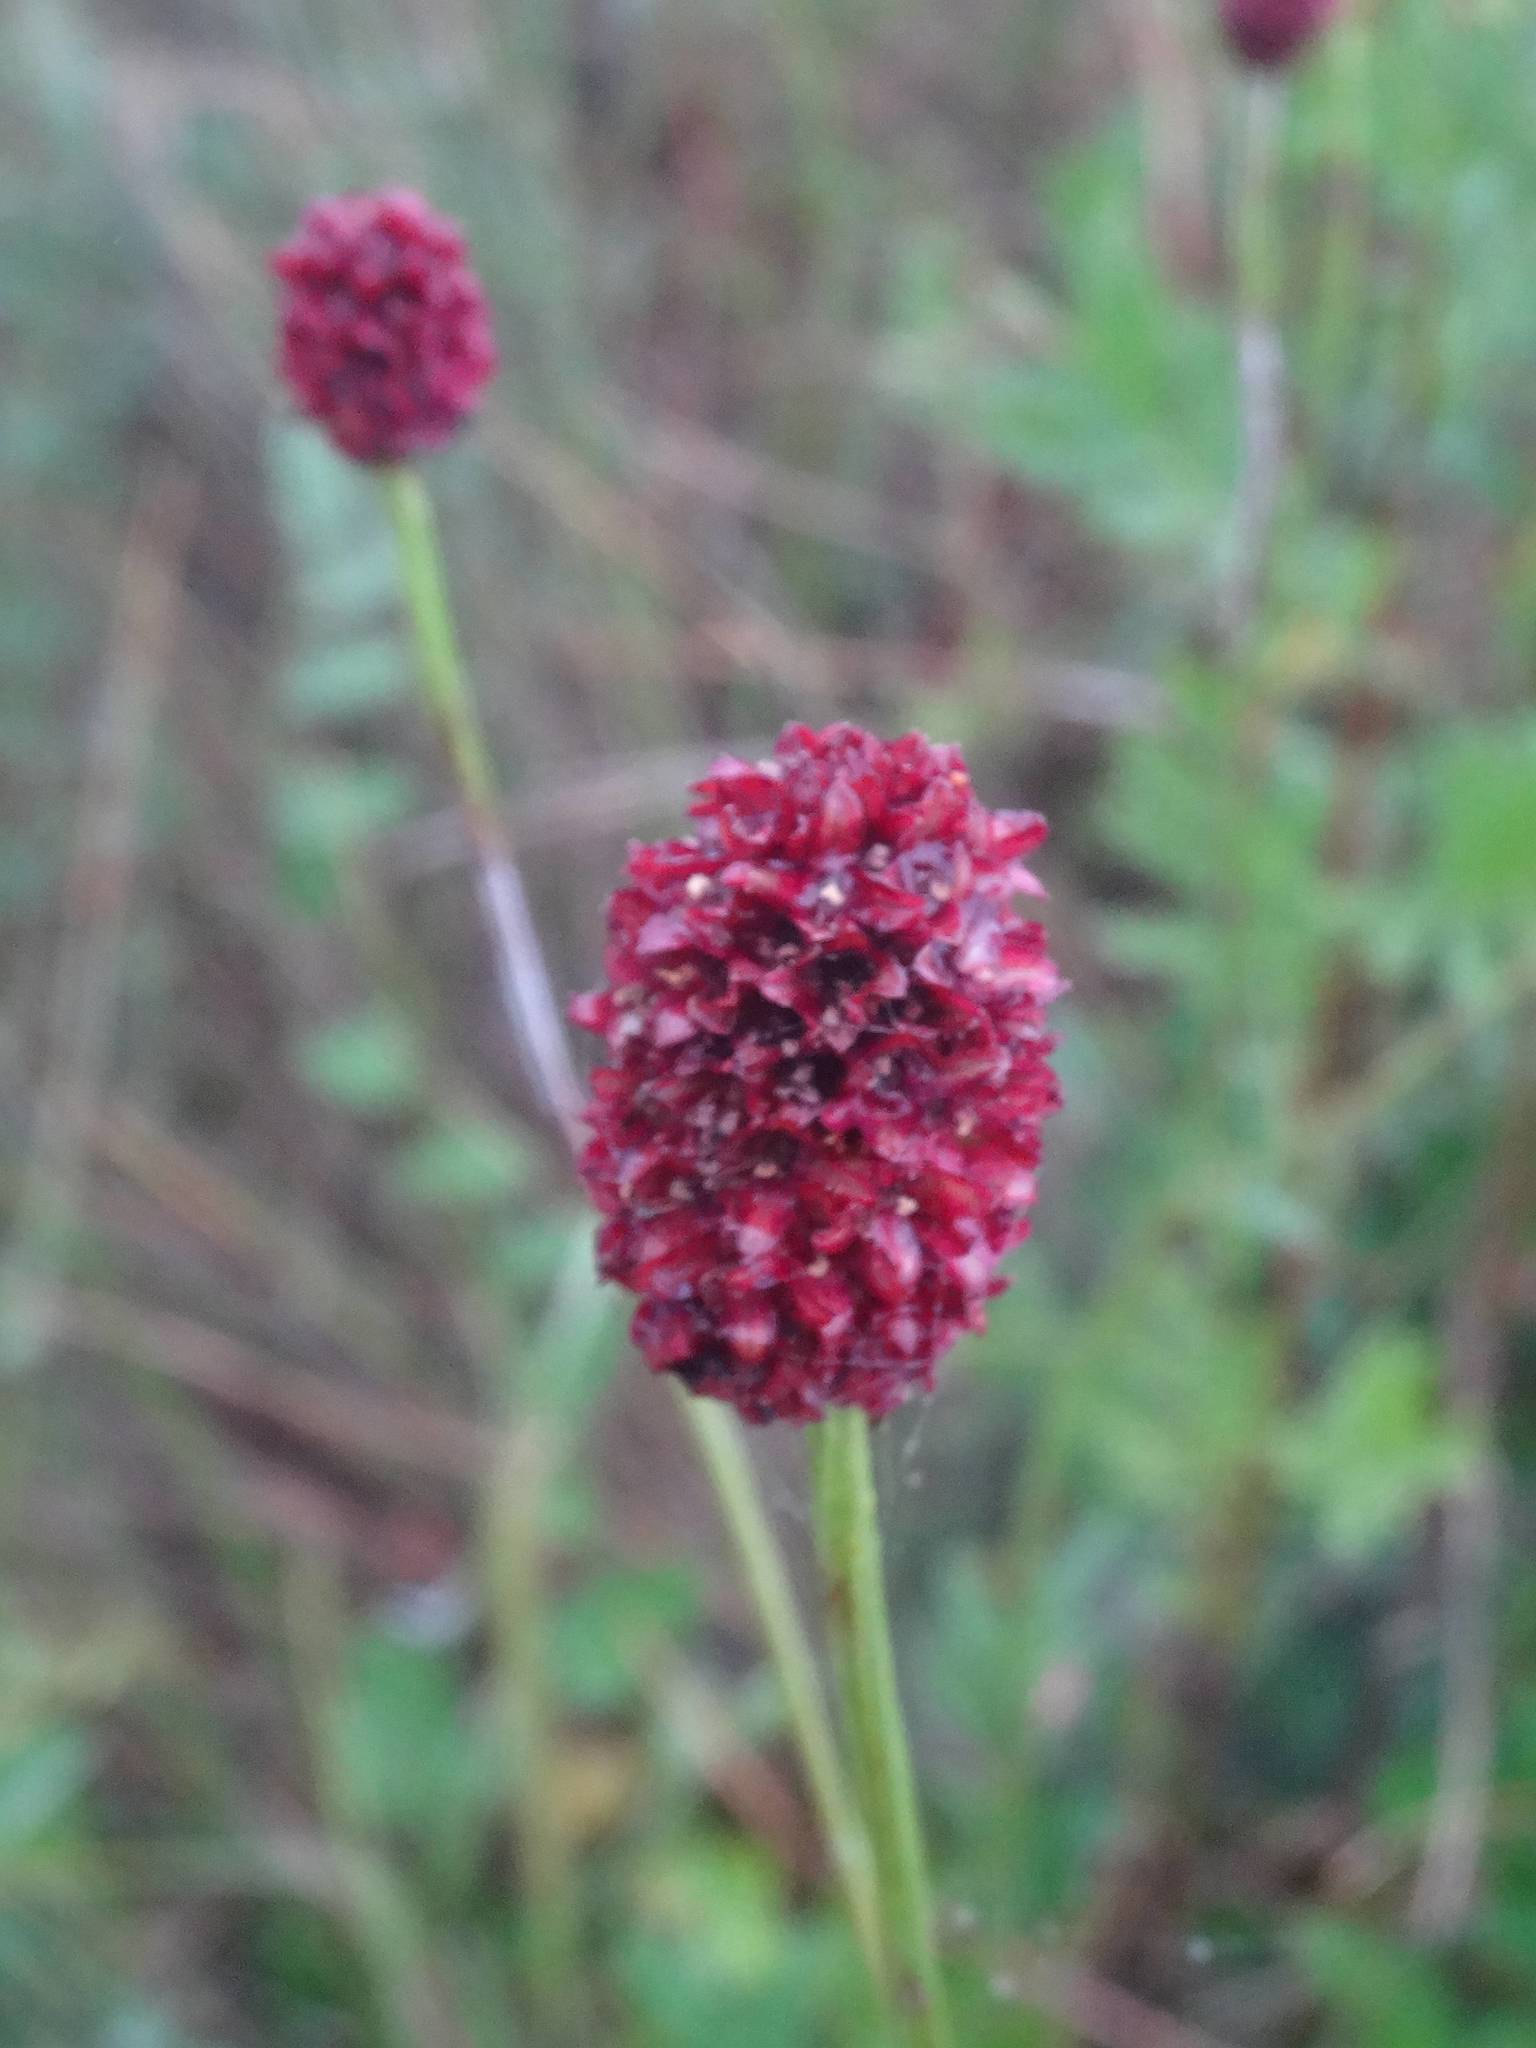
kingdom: Plantae
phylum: Tracheophyta
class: Magnoliopsida
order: Rosales
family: Rosaceae
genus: Sanguisorba
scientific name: Sanguisorba officinalis
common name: Great burnet
